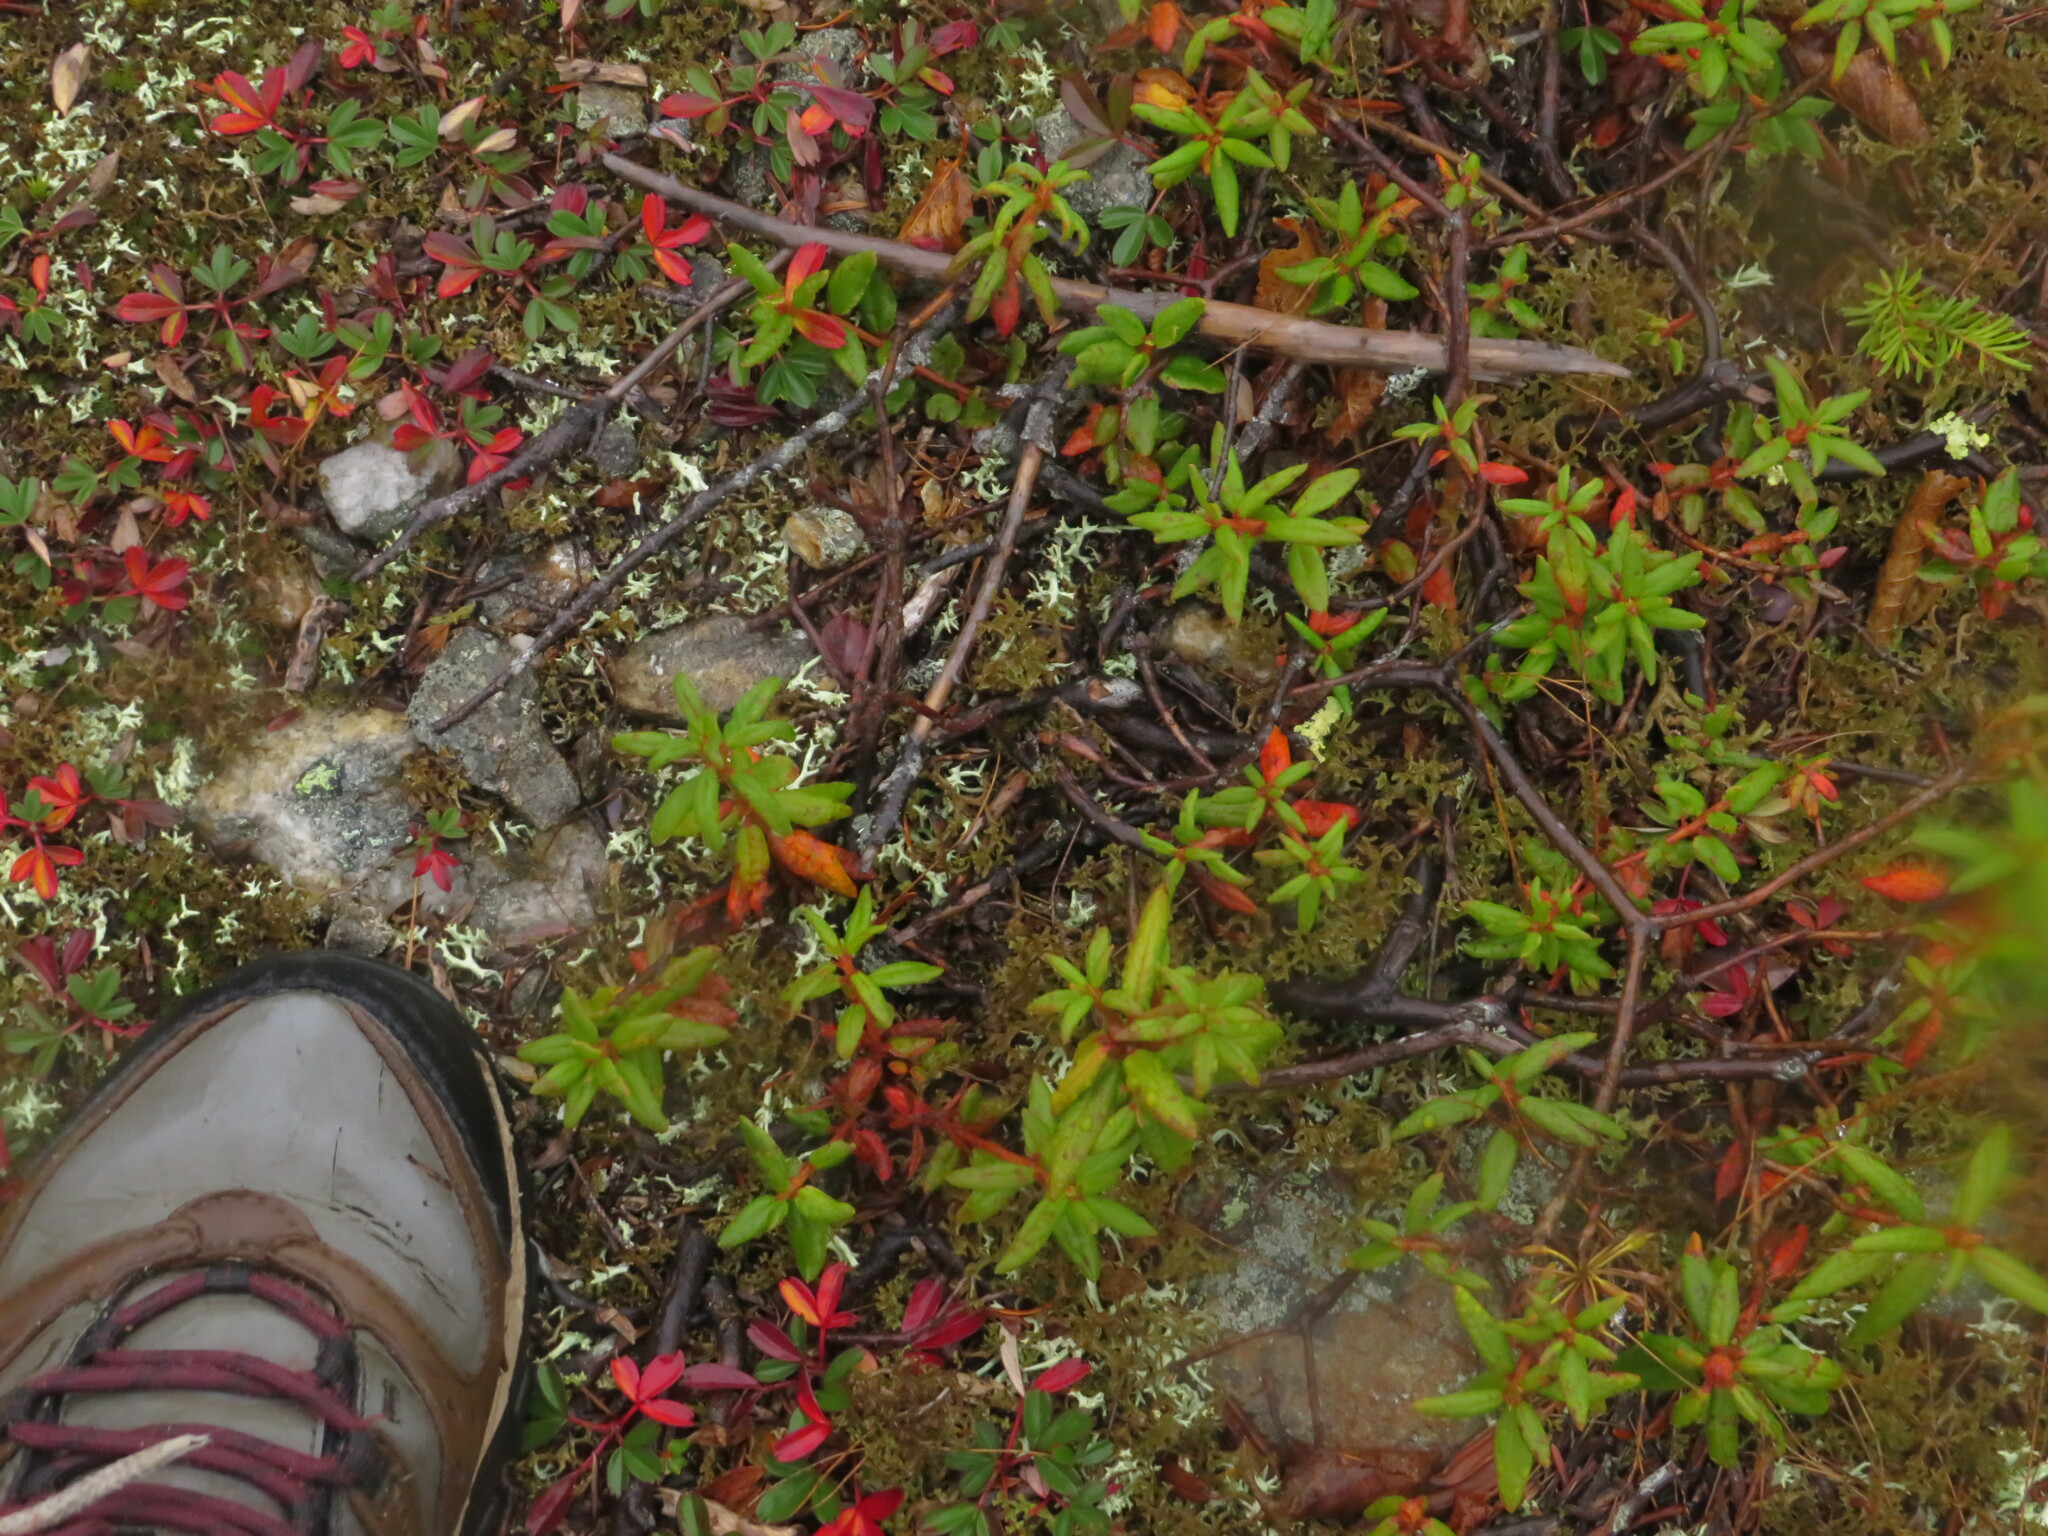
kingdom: Plantae
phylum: Tracheophyta
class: Magnoliopsida
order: Ericales
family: Ericaceae
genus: Rhododendron
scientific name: Rhododendron groenlandicum
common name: Bog labrador tea
